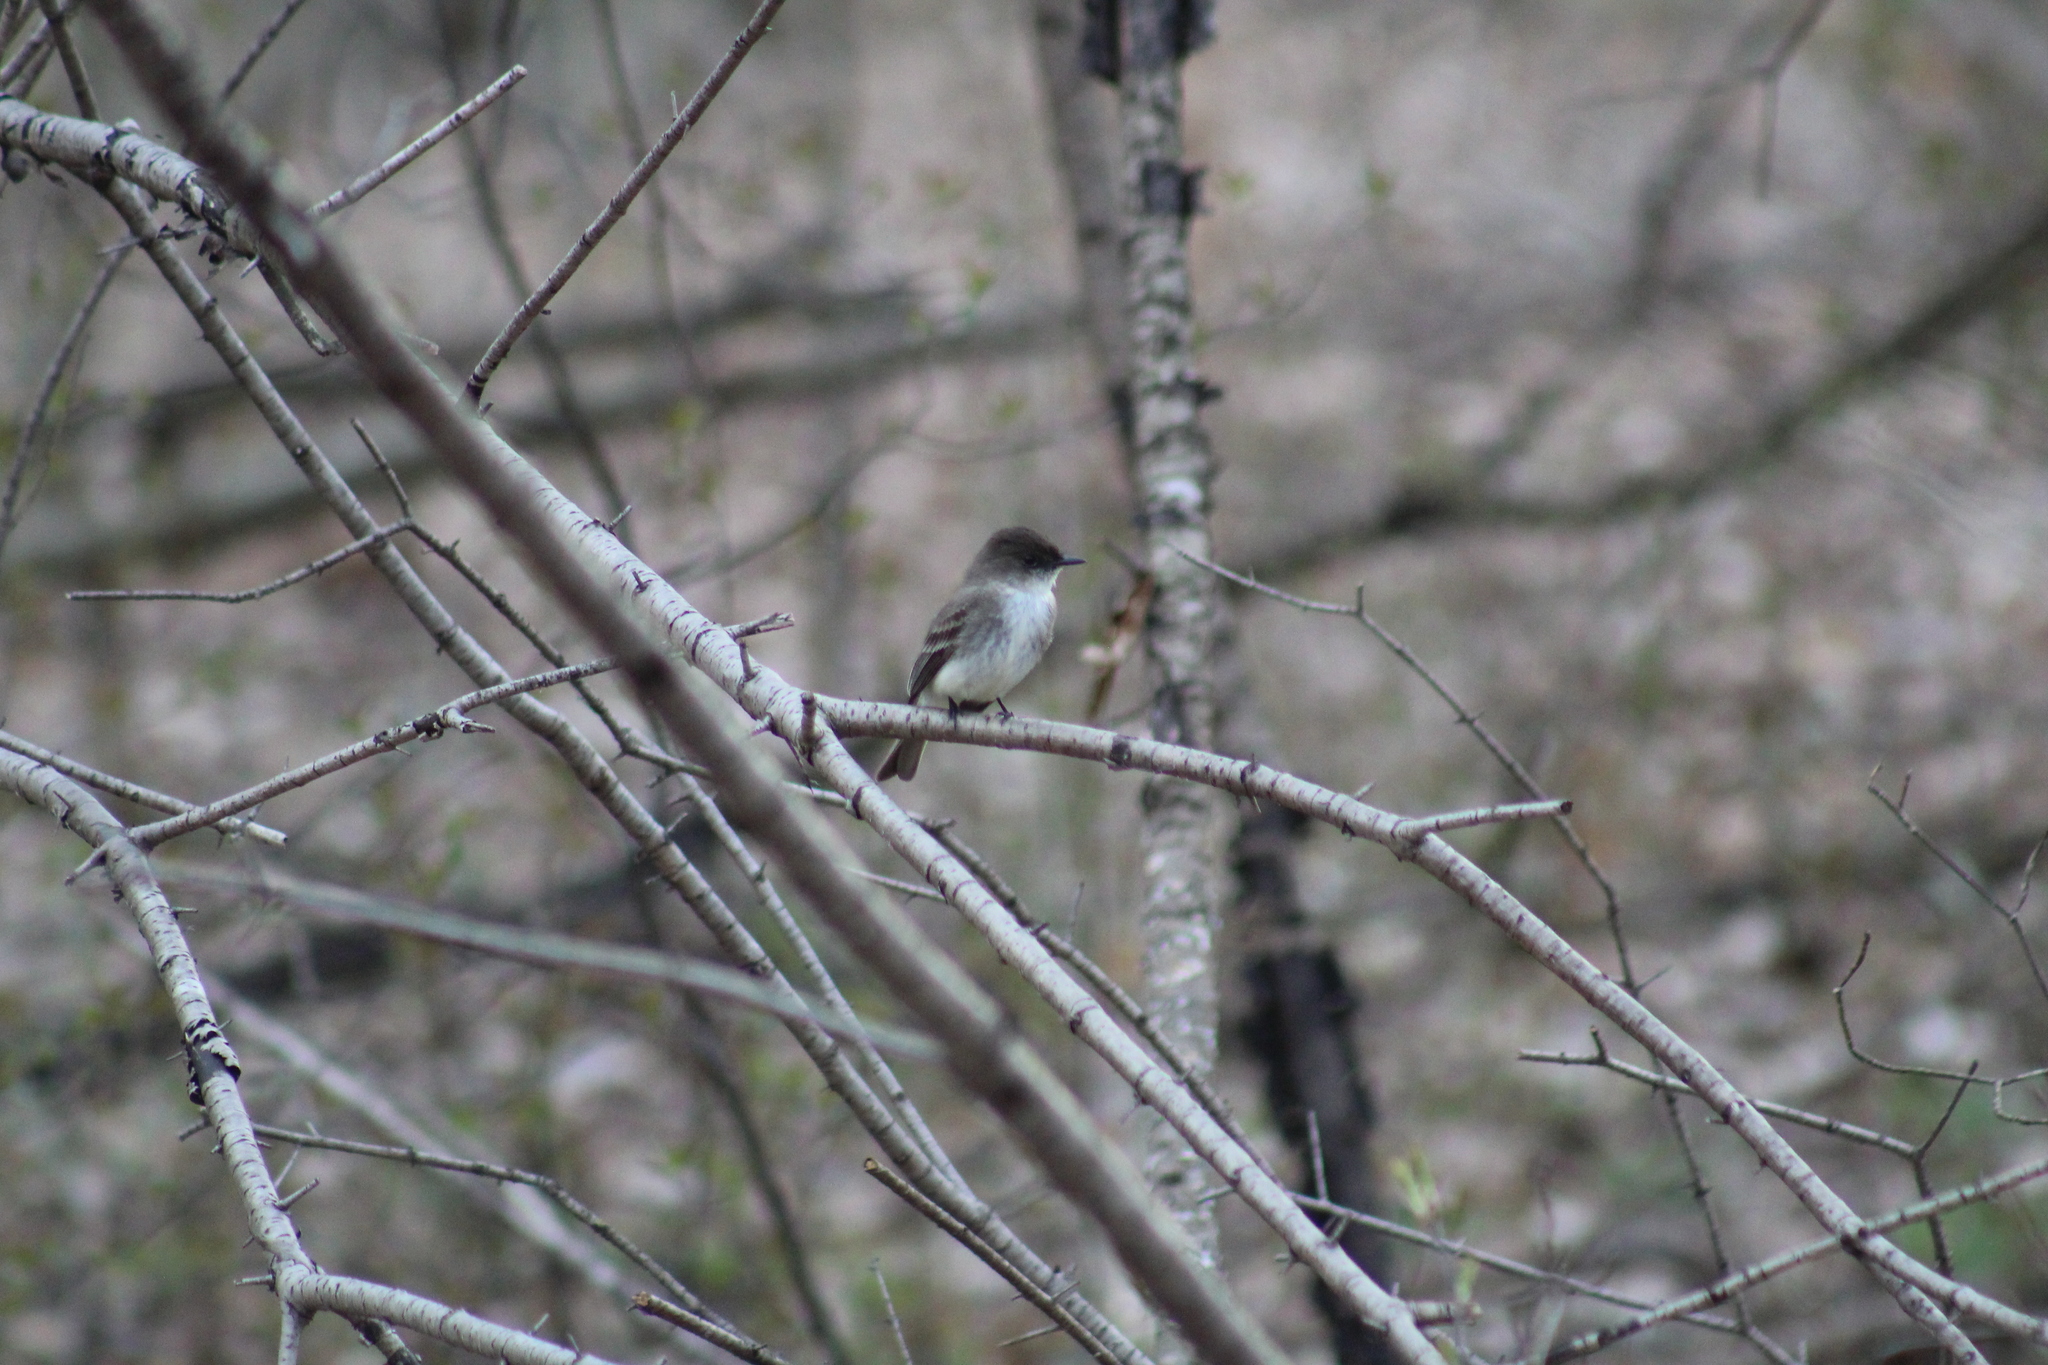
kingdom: Animalia
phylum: Chordata
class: Aves
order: Passeriformes
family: Tyrannidae
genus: Sayornis
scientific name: Sayornis phoebe
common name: Eastern phoebe
